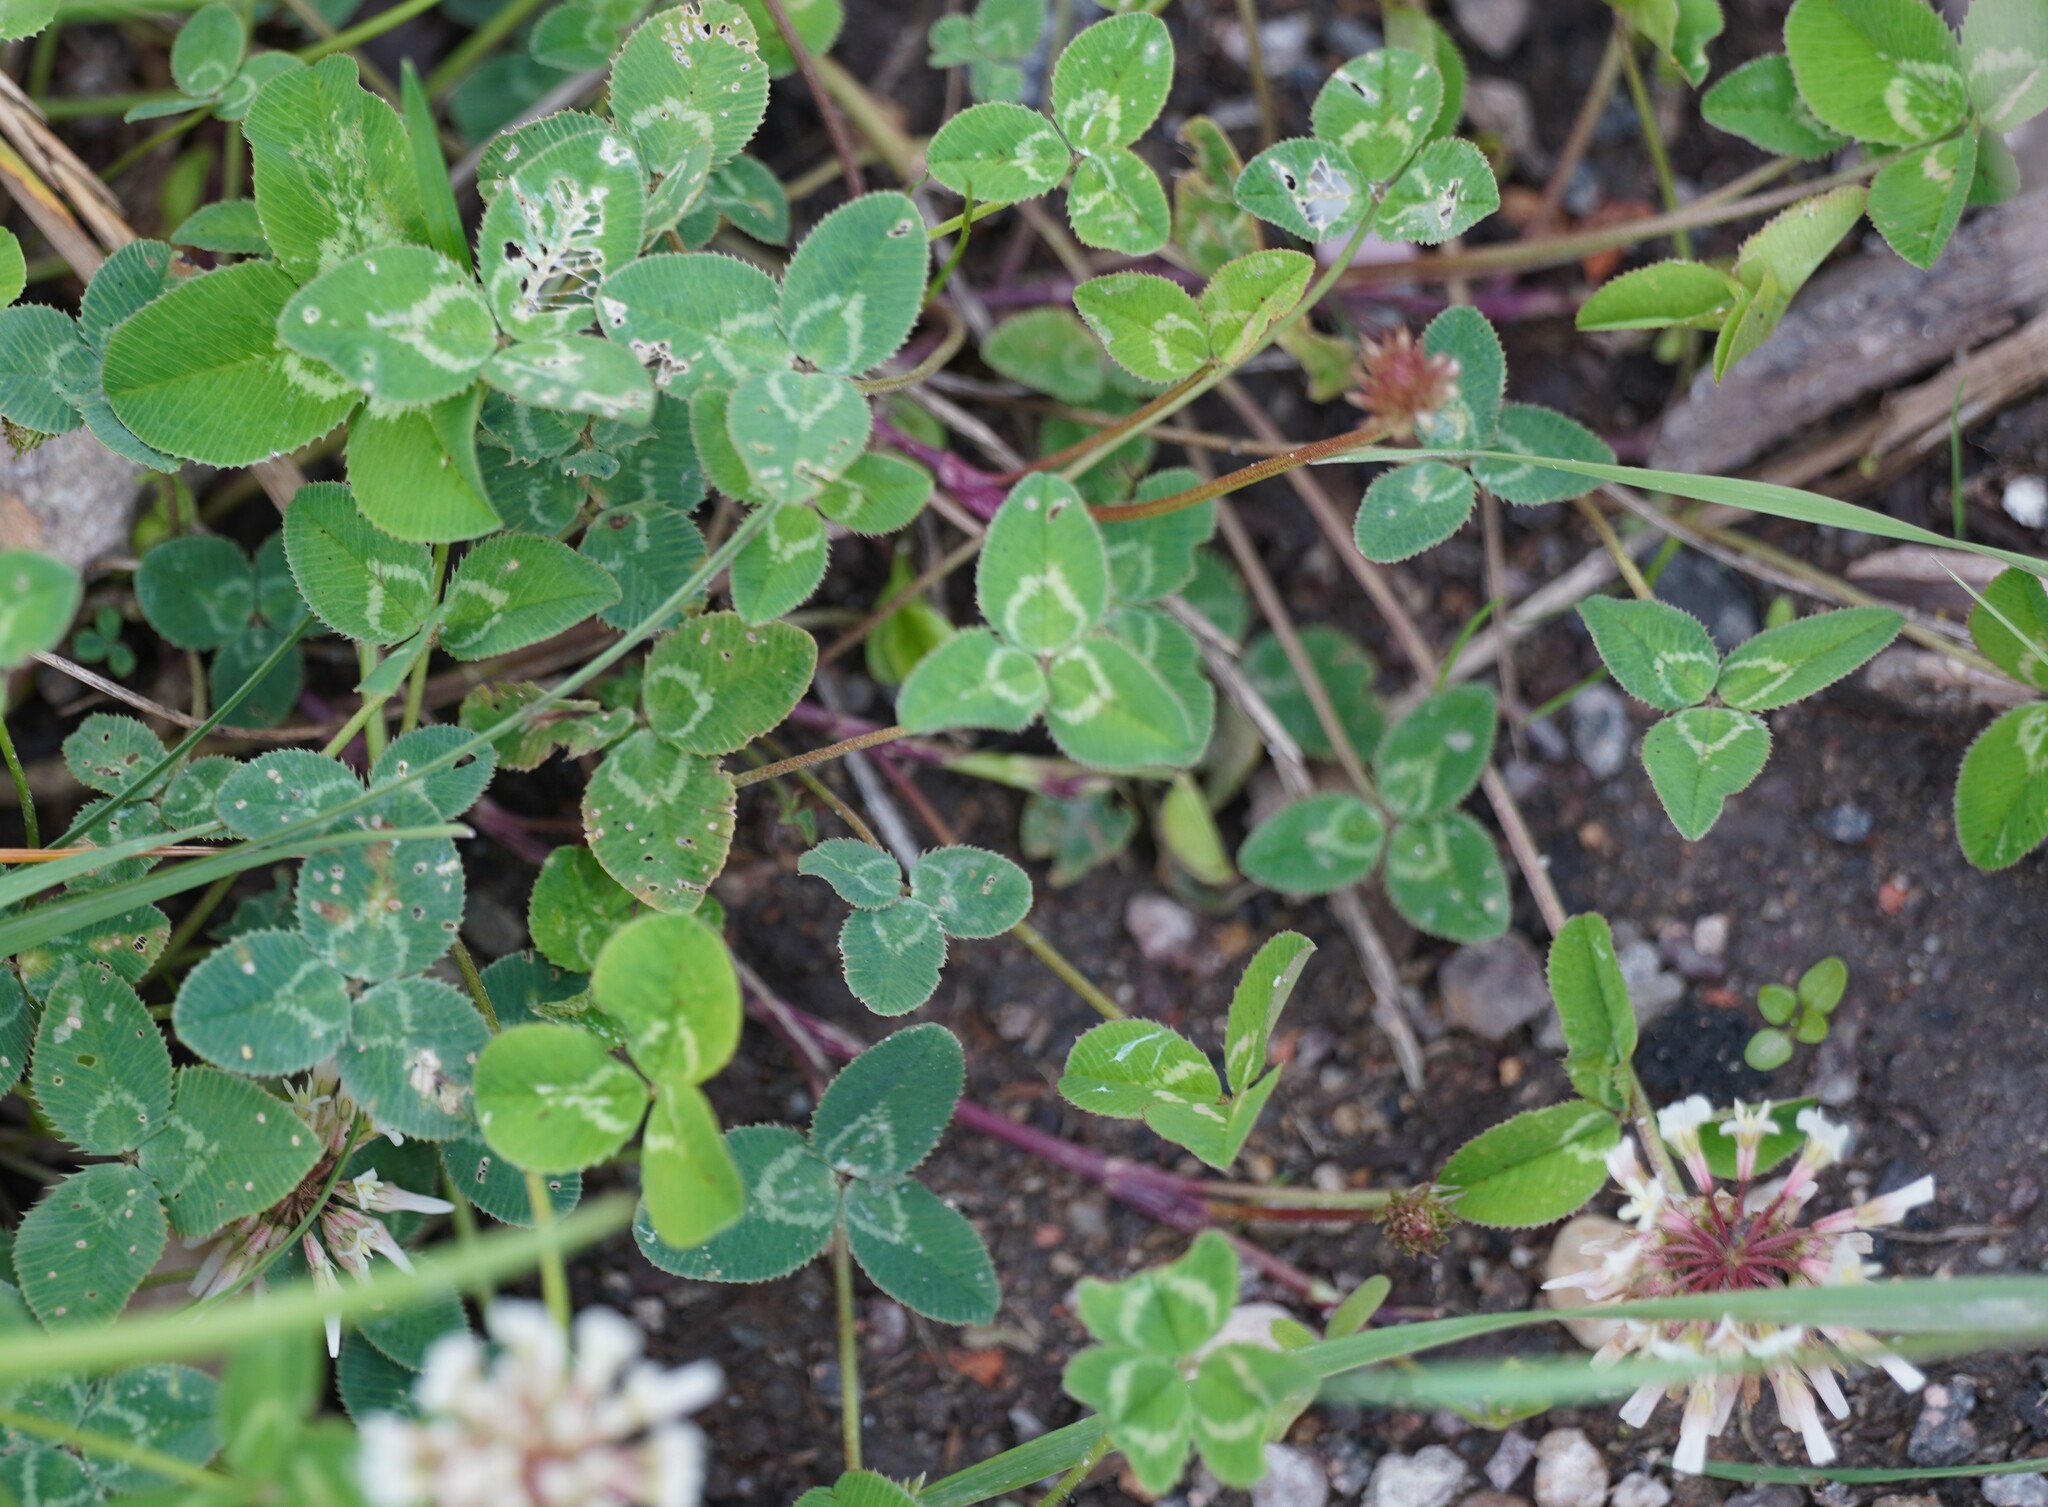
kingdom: Plantae
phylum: Tracheophyta
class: Magnoliopsida
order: Fabales
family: Fabaceae
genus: Trifolium
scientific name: Trifolium repens
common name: White clover
